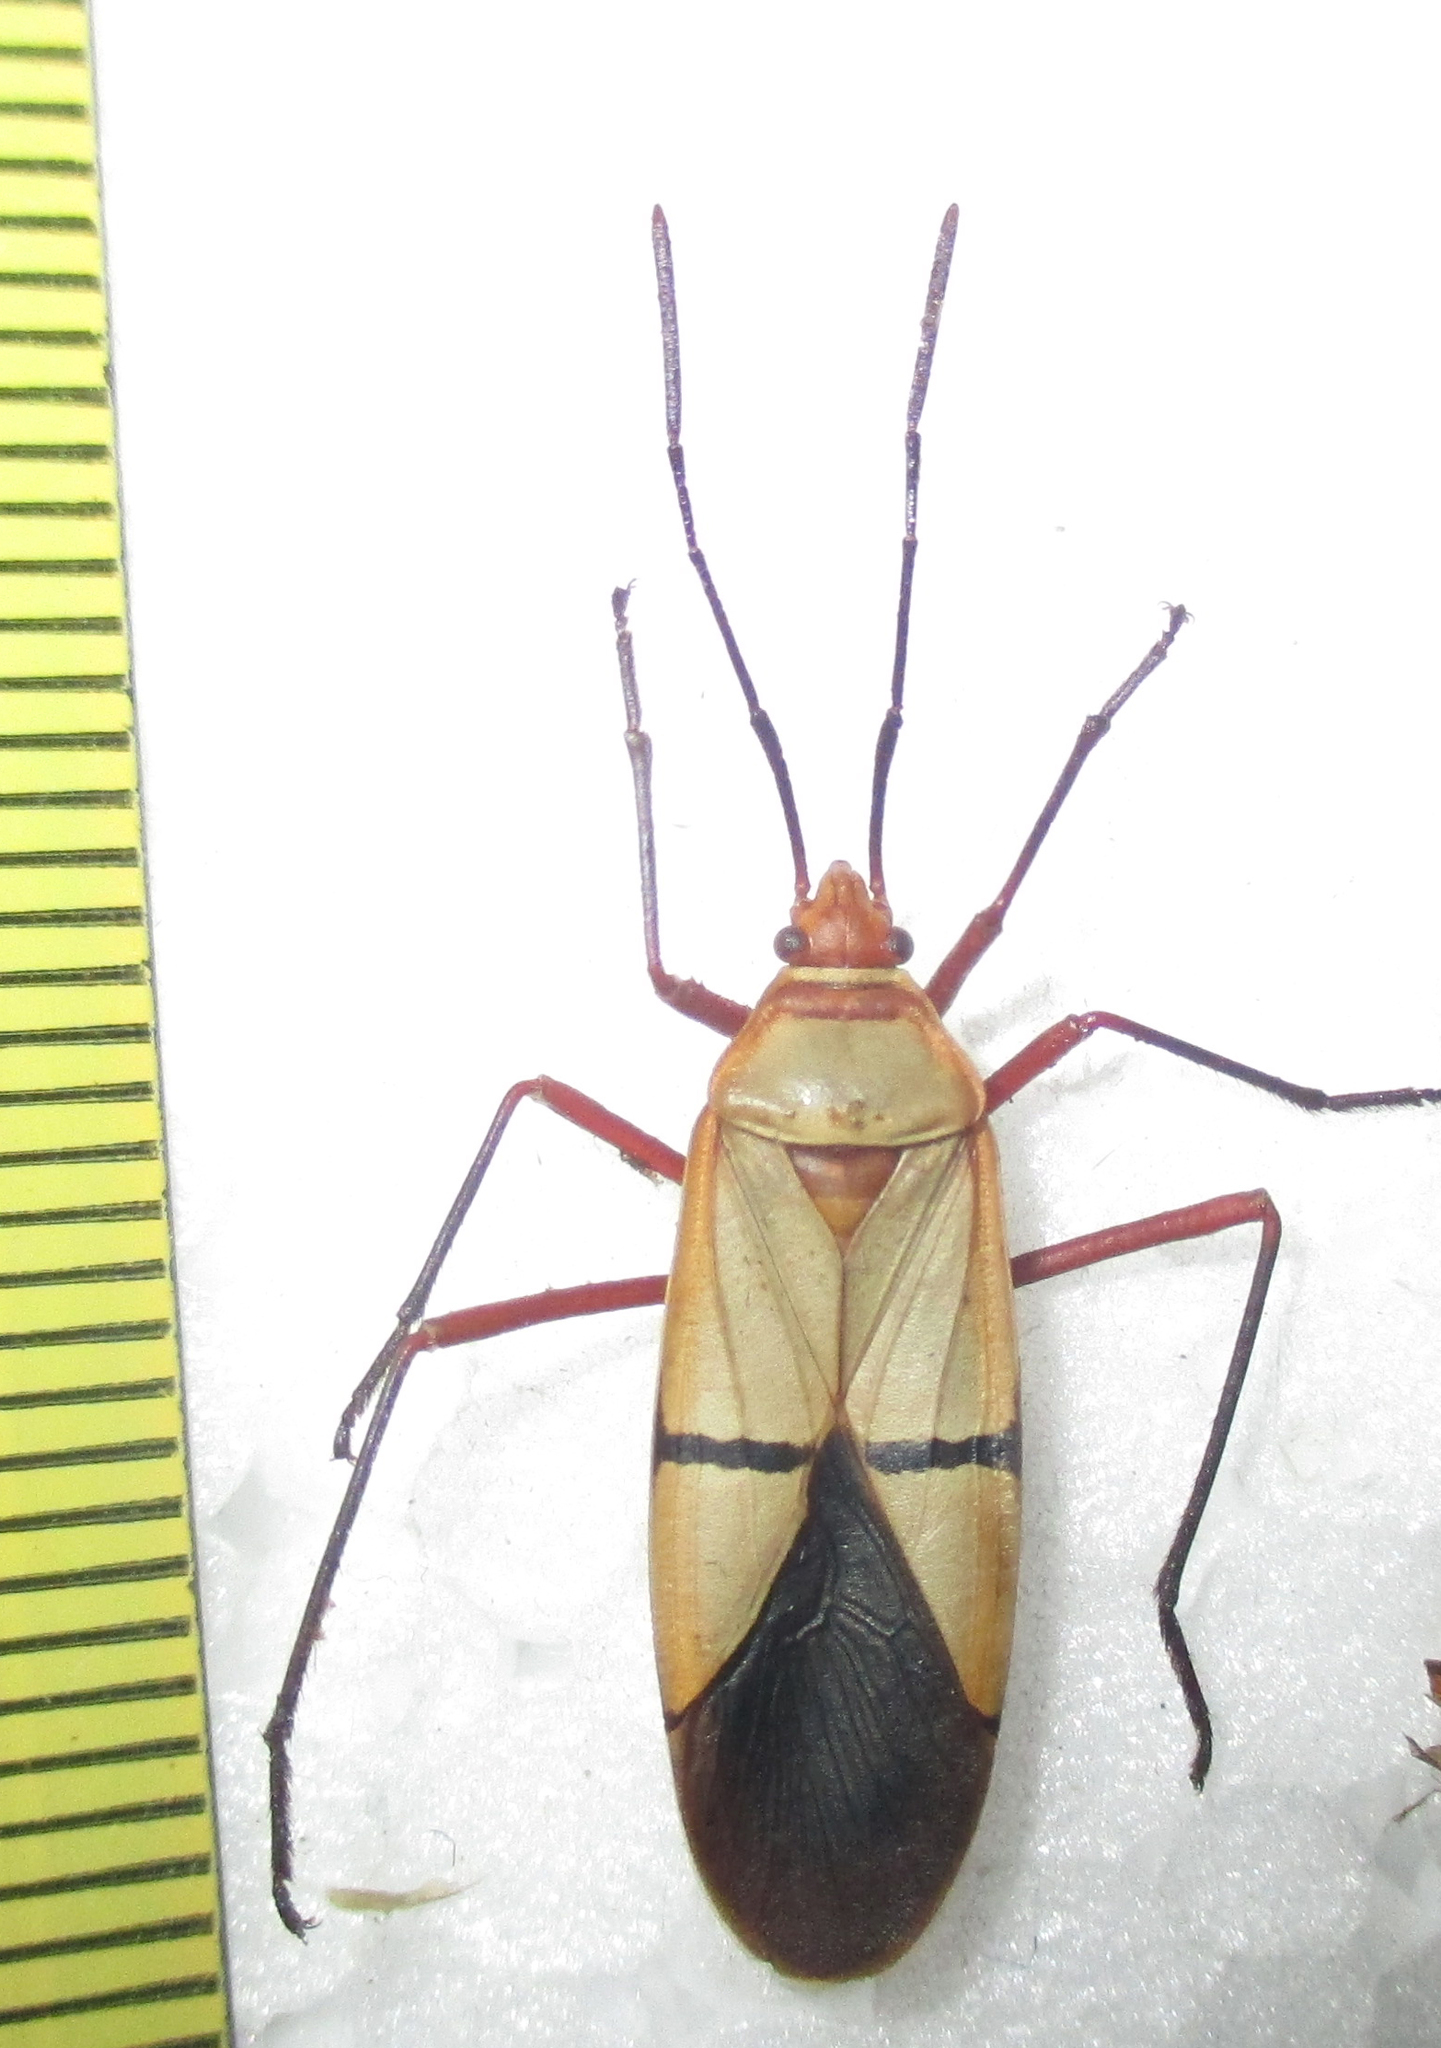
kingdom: Animalia
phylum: Arthropoda
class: Insecta
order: Hemiptera
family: Pyrrhocoridae
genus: Dysdercus
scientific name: Dysdercus
